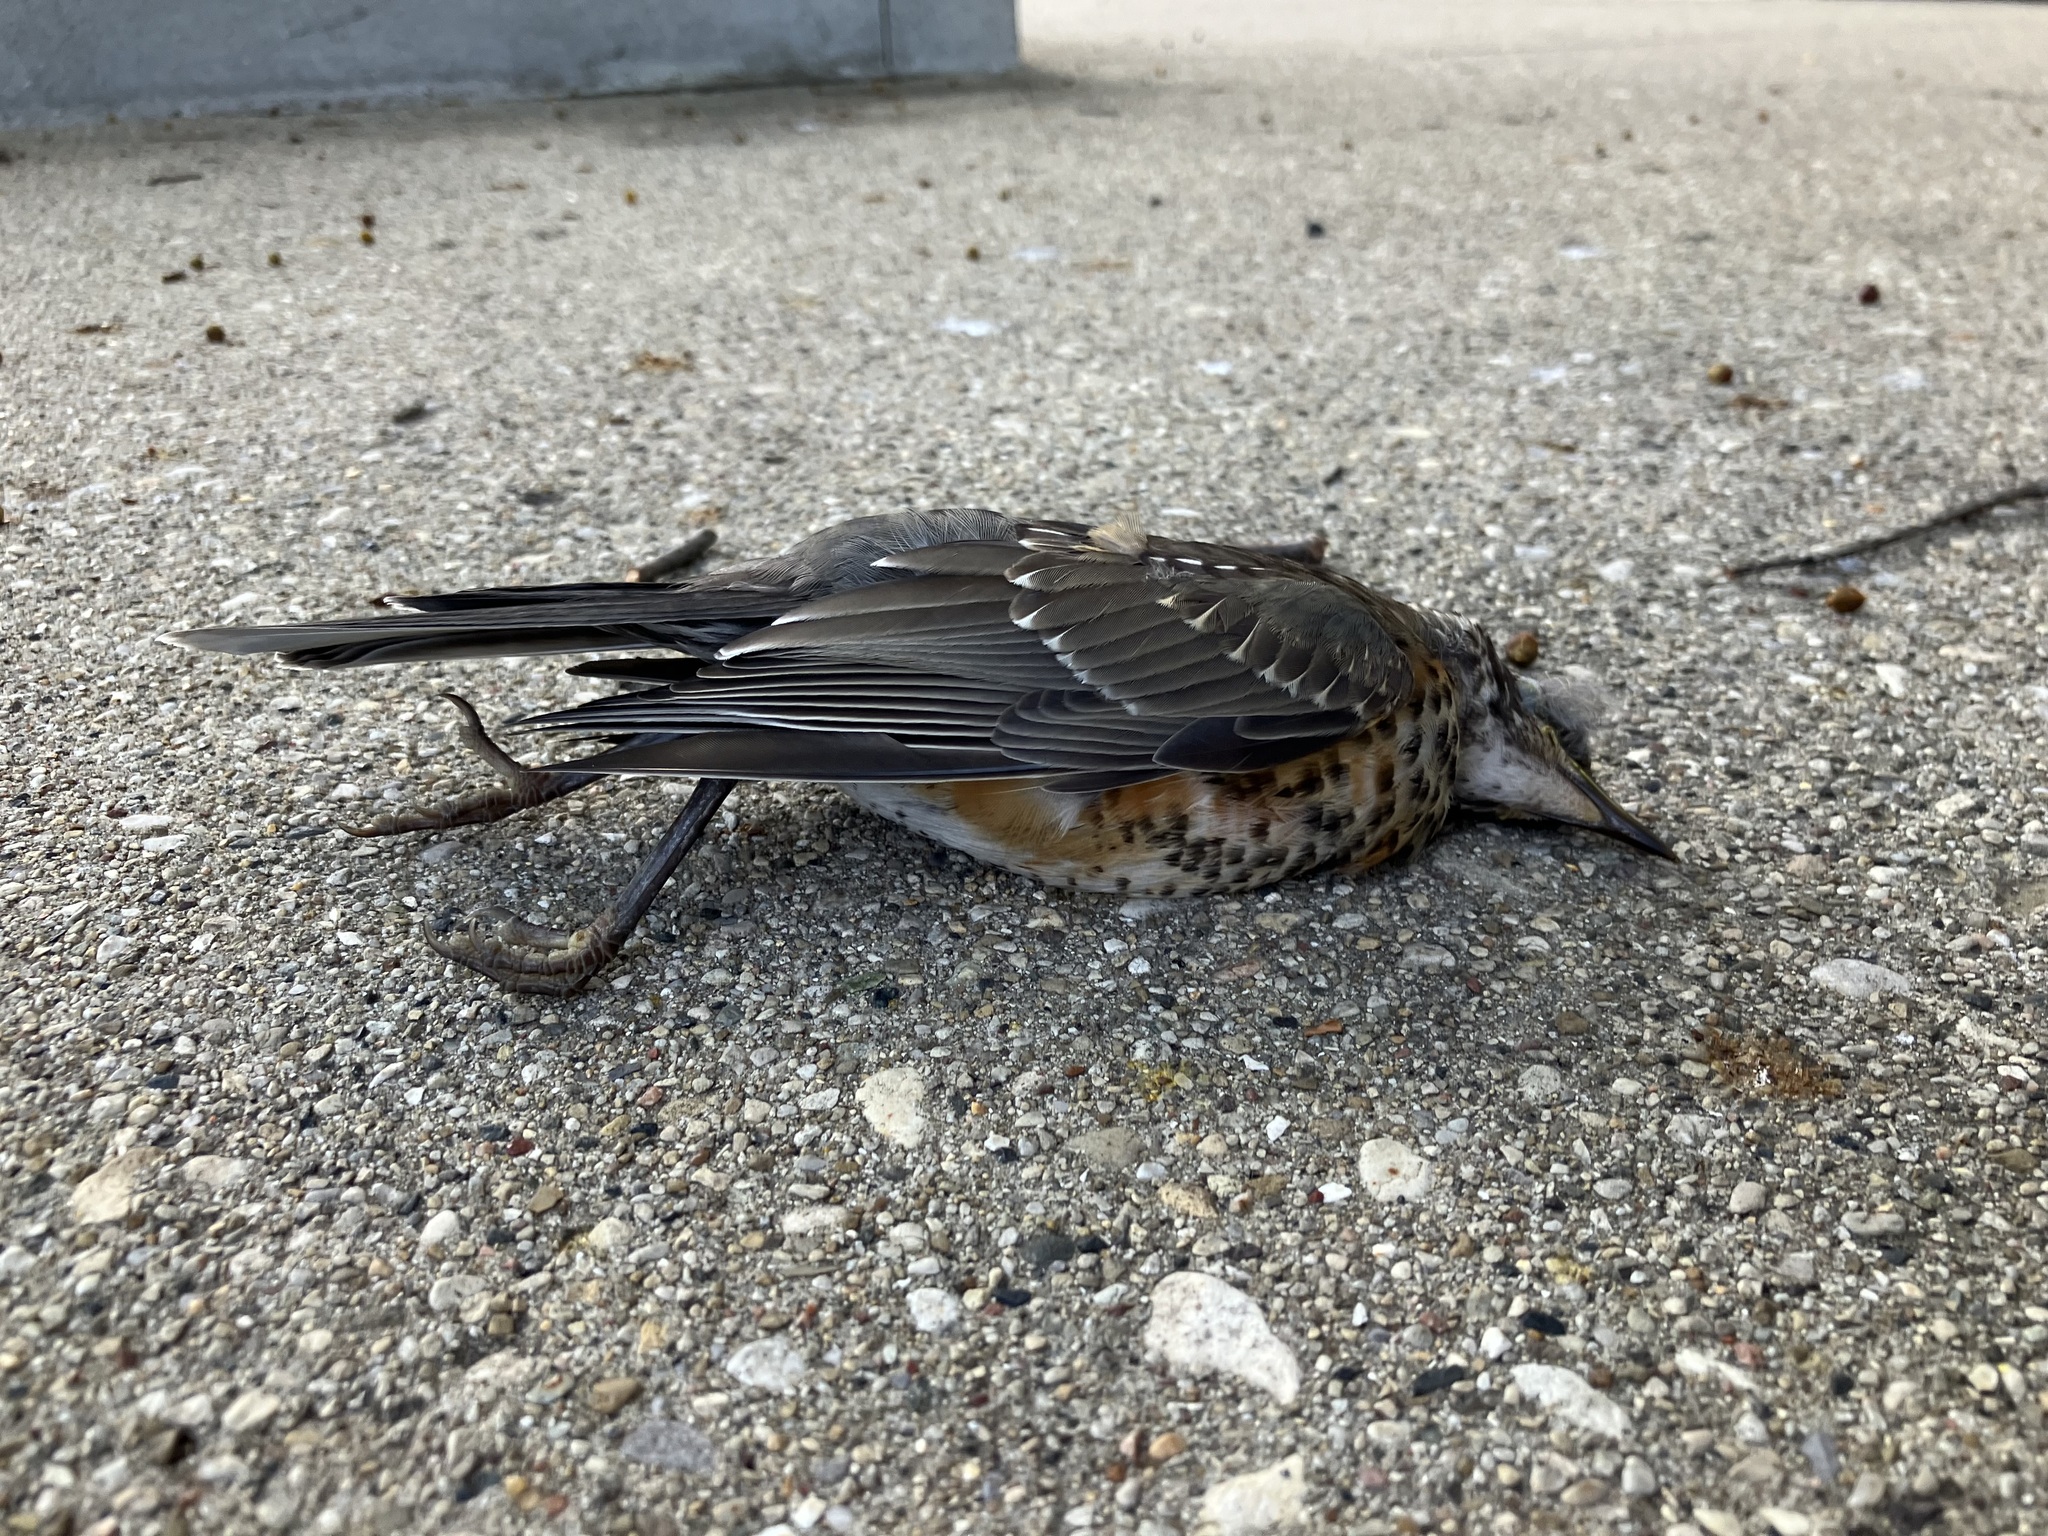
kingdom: Animalia
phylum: Chordata
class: Aves
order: Passeriformes
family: Turdidae
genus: Turdus
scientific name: Turdus migratorius
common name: American robin
